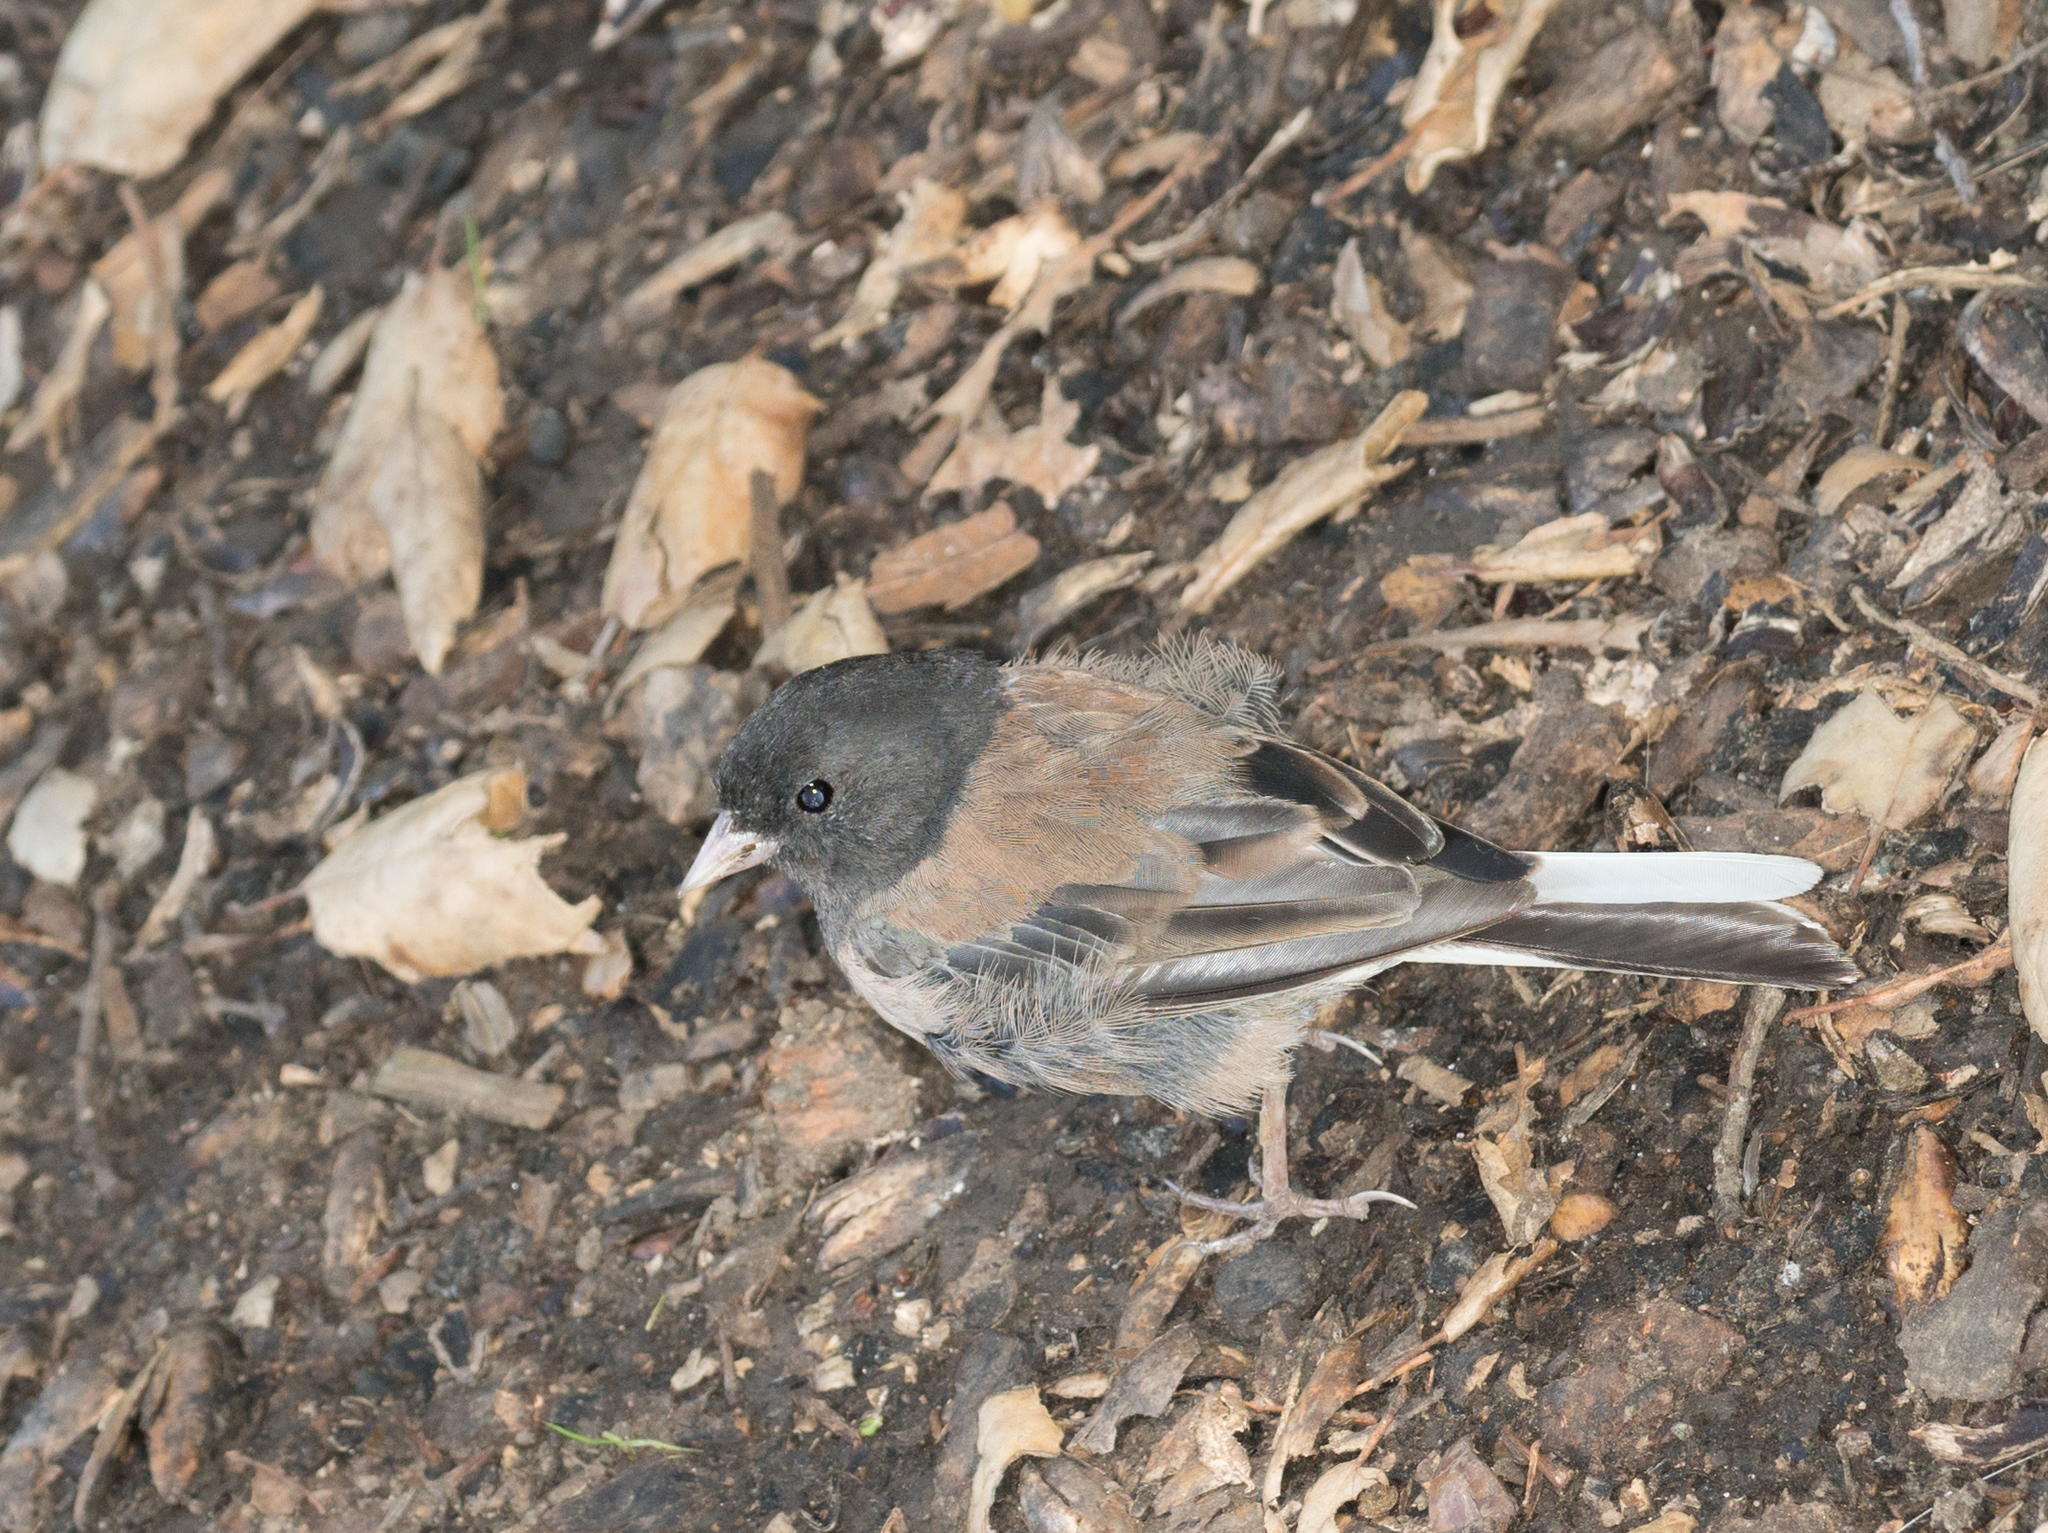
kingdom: Animalia
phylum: Chordata
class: Aves
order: Passeriformes
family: Passerellidae
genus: Junco
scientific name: Junco hyemalis
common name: Dark-eyed junco
